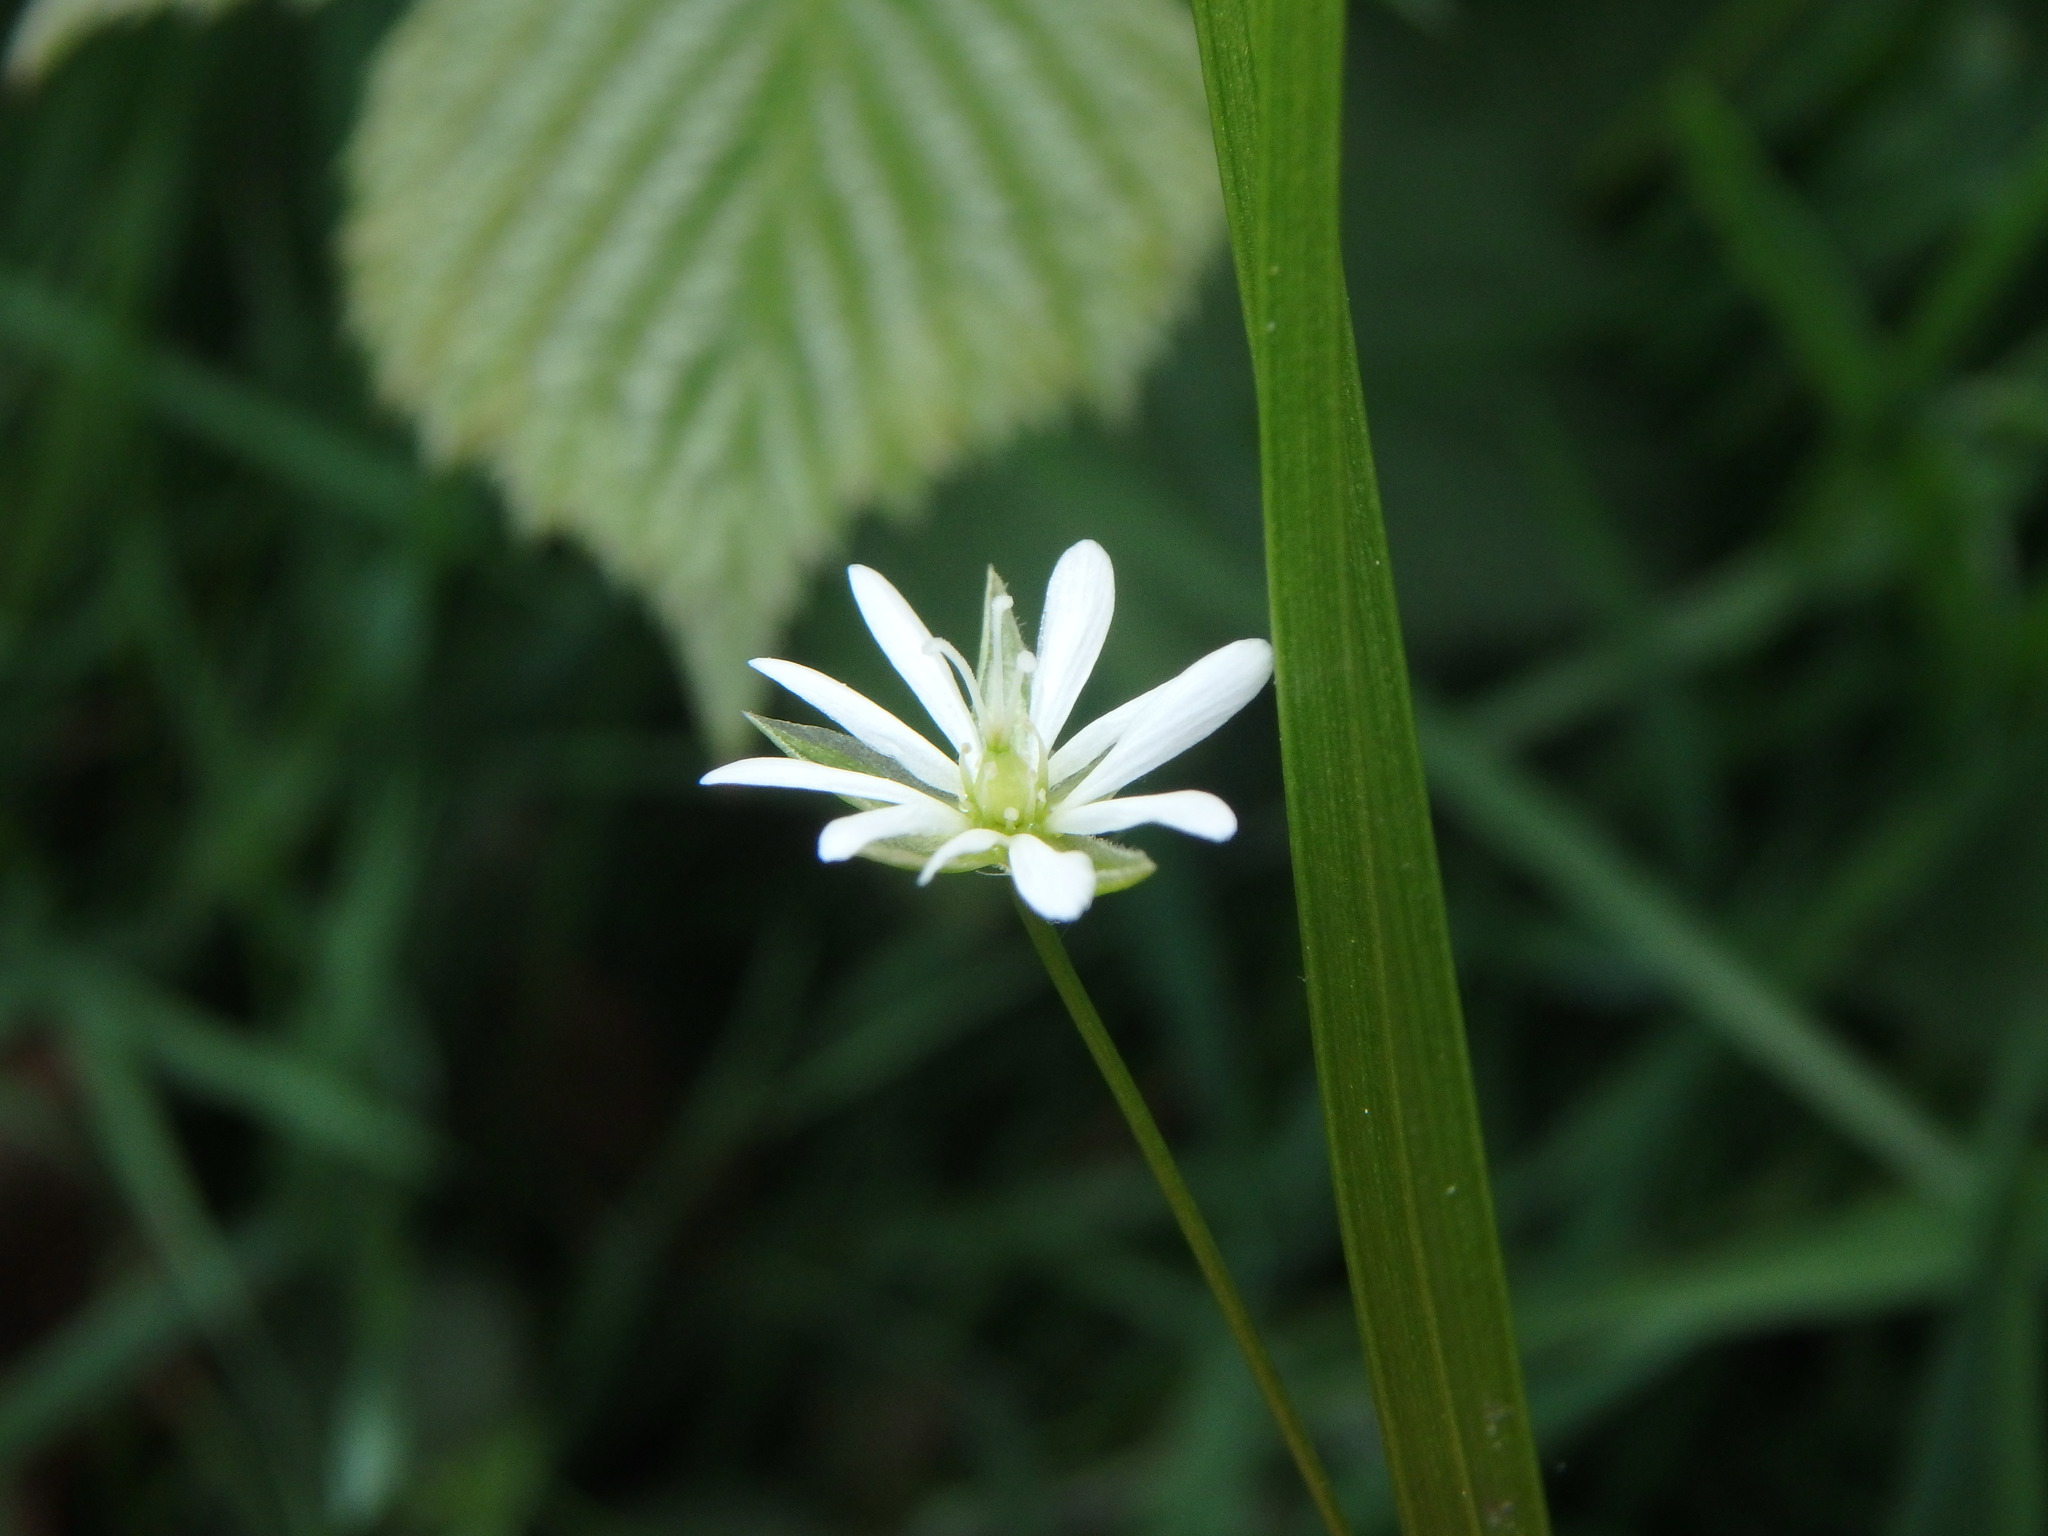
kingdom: Plantae
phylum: Tracheophyta
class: Magnoliopsida
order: Caryophyllales
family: Caryophyllaceae
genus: Stellaria
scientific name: Stellaria graminea
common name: Grass-like starwort
